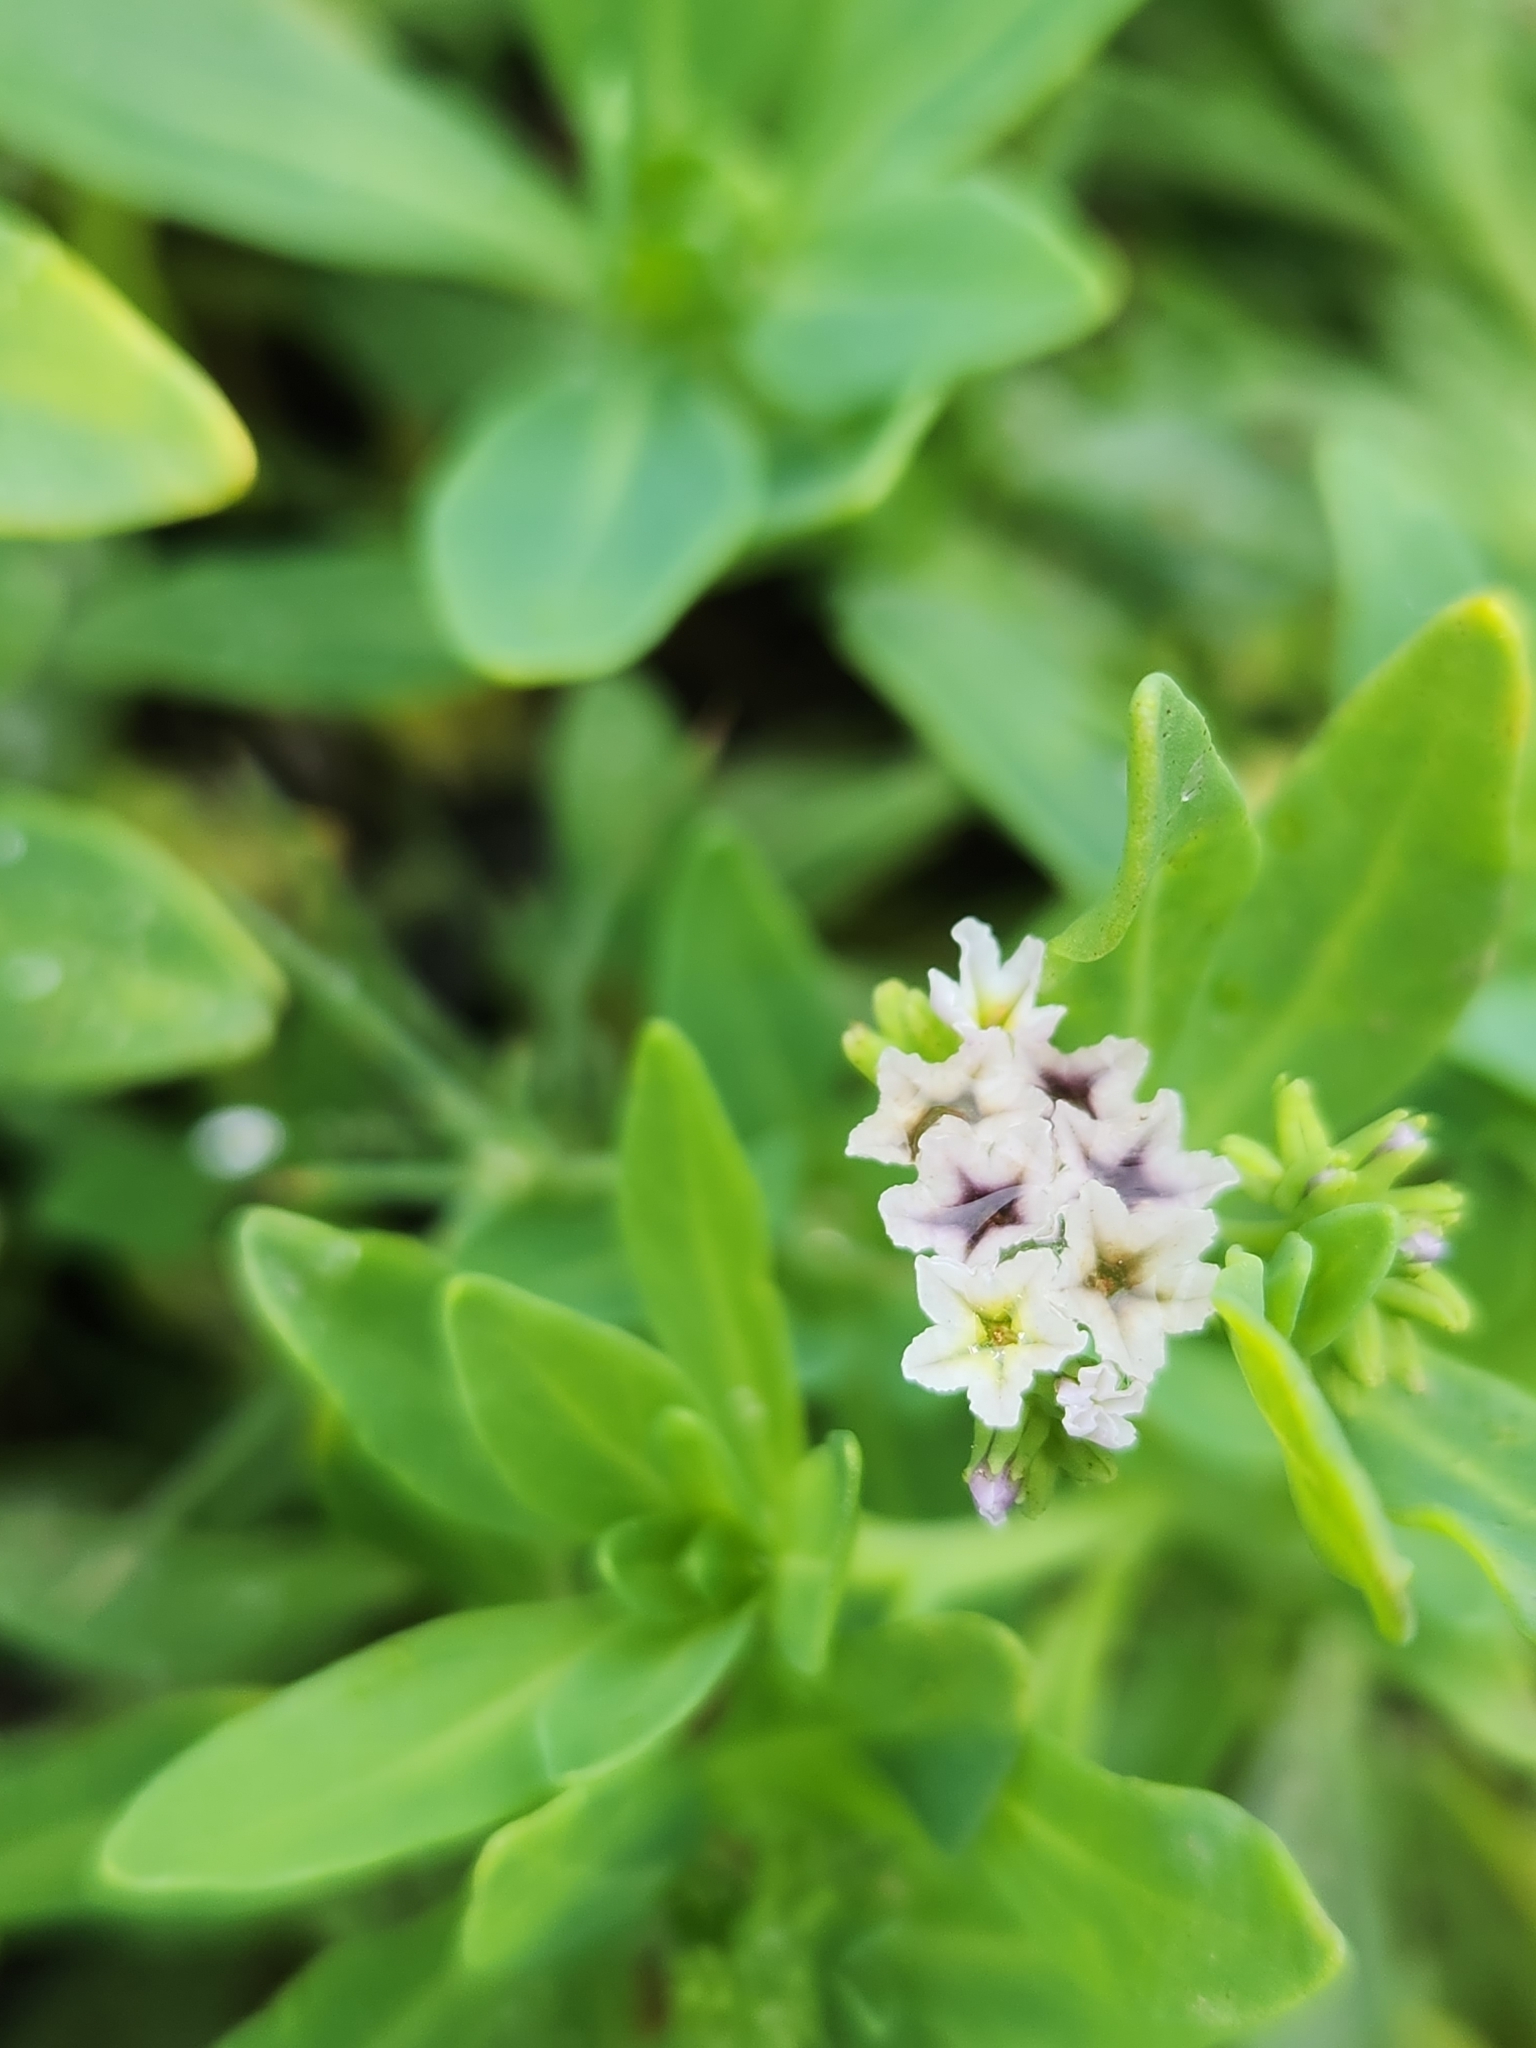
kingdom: Plantae
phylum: Tracheophyta
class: Magnoliopsida
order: Boraginales
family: Heliotropiaceae
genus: Heliotropium
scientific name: Heliotropium curassavicum
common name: Seaside heliotrope
